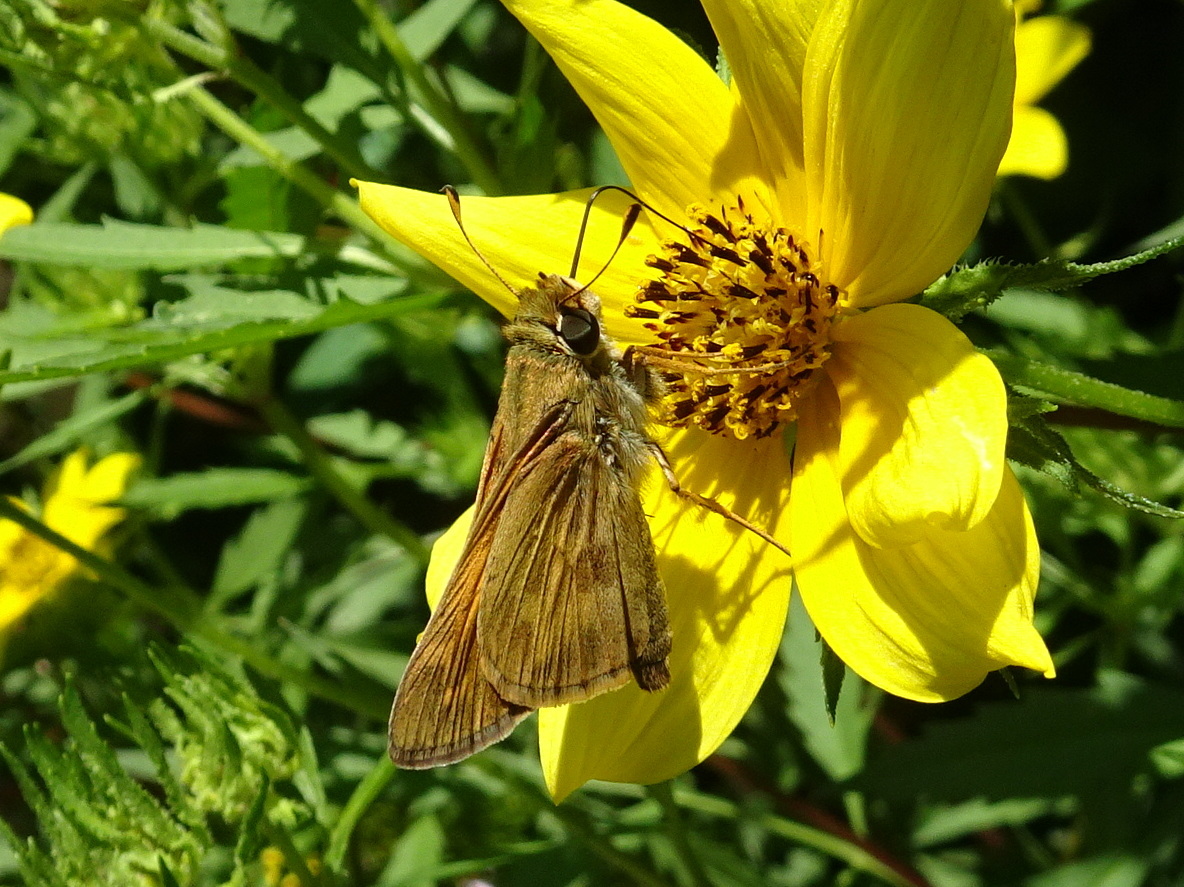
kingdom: Animalia
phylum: Arthropoda
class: Insecta
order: Lepidoptera
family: Hesperiidae
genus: Atalopedes
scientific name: Atalopedes
